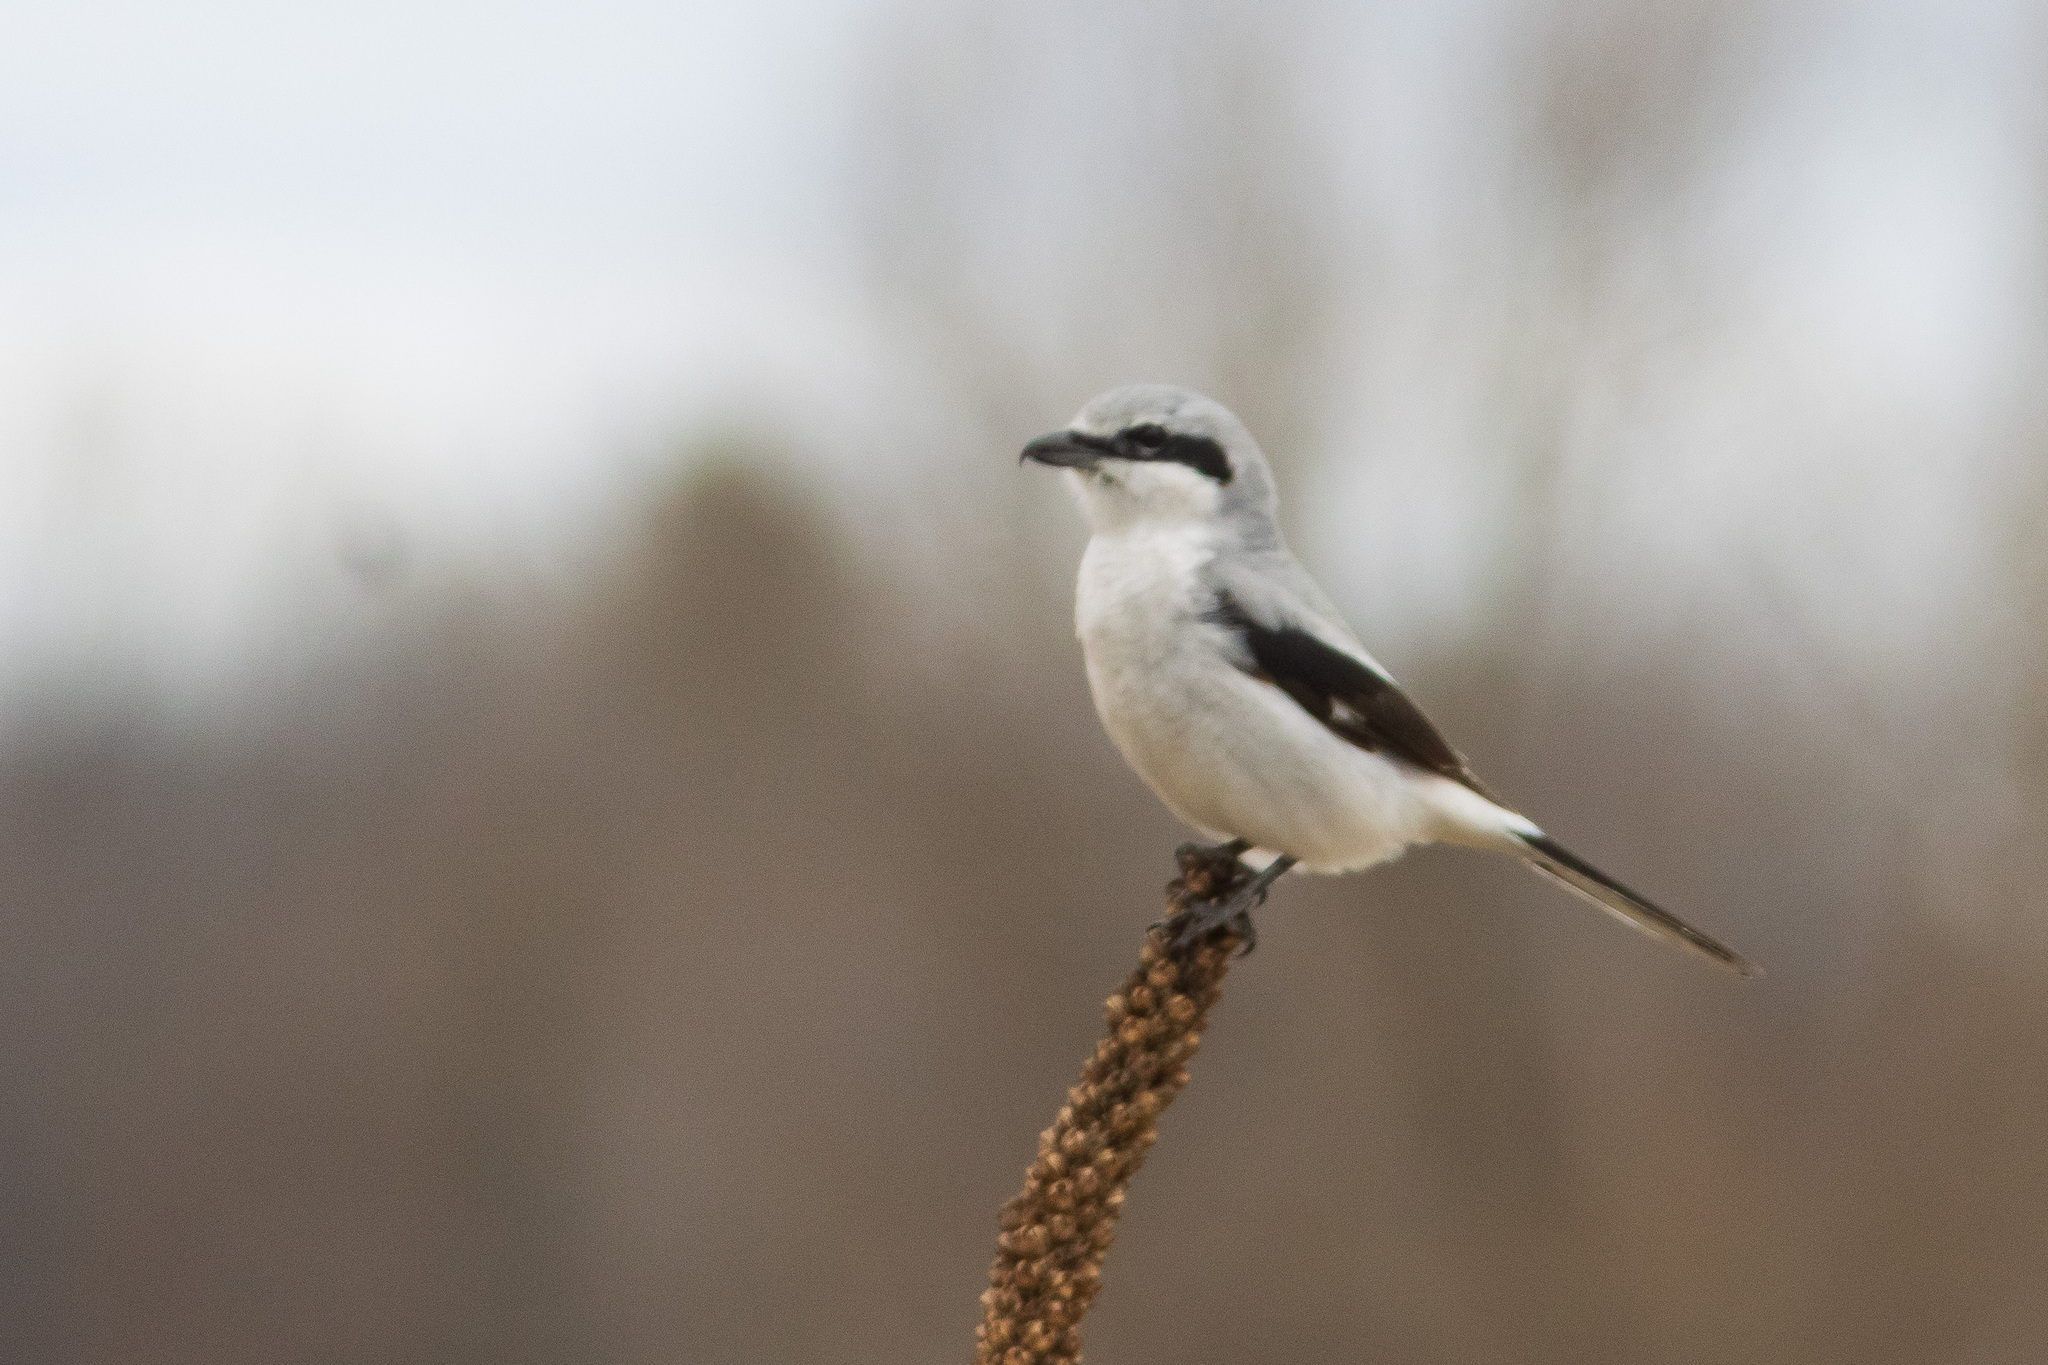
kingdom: Animalia
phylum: Chordata
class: Aves
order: Passeriformes
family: Laniidae
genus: Lanius
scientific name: Lanius borealis
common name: Northern shrike
